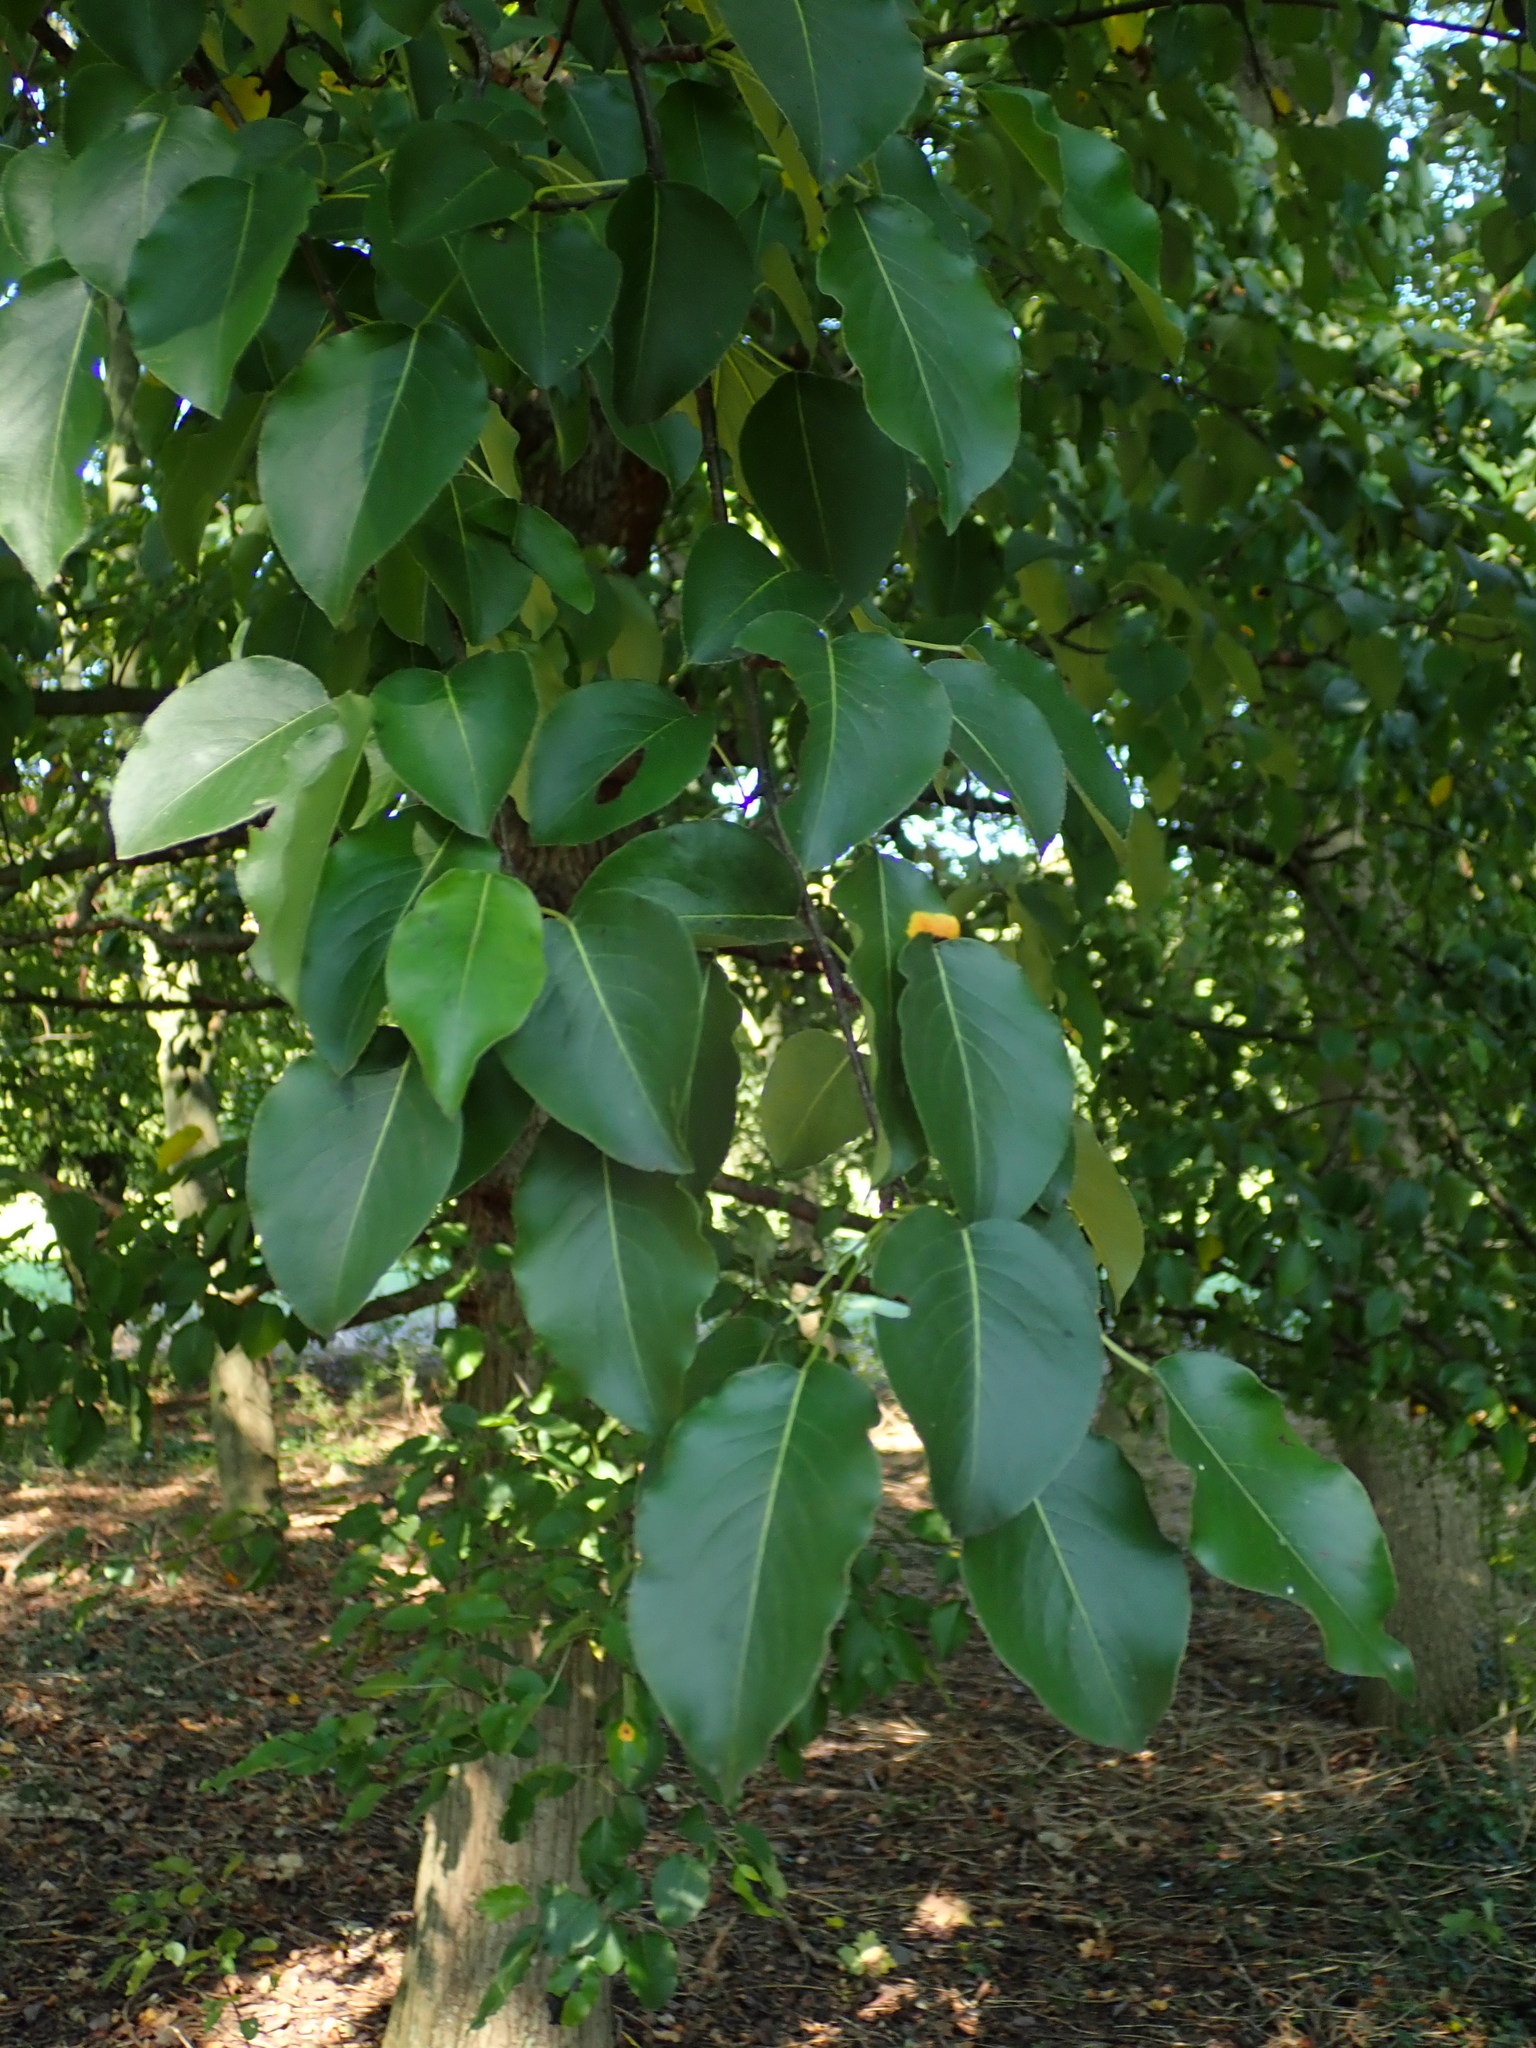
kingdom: Plantae
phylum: Tracheophyta
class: Magnoliopsida
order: Rosales
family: Rosaceae
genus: Pyrus
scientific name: Pyrus communis
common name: Pear
